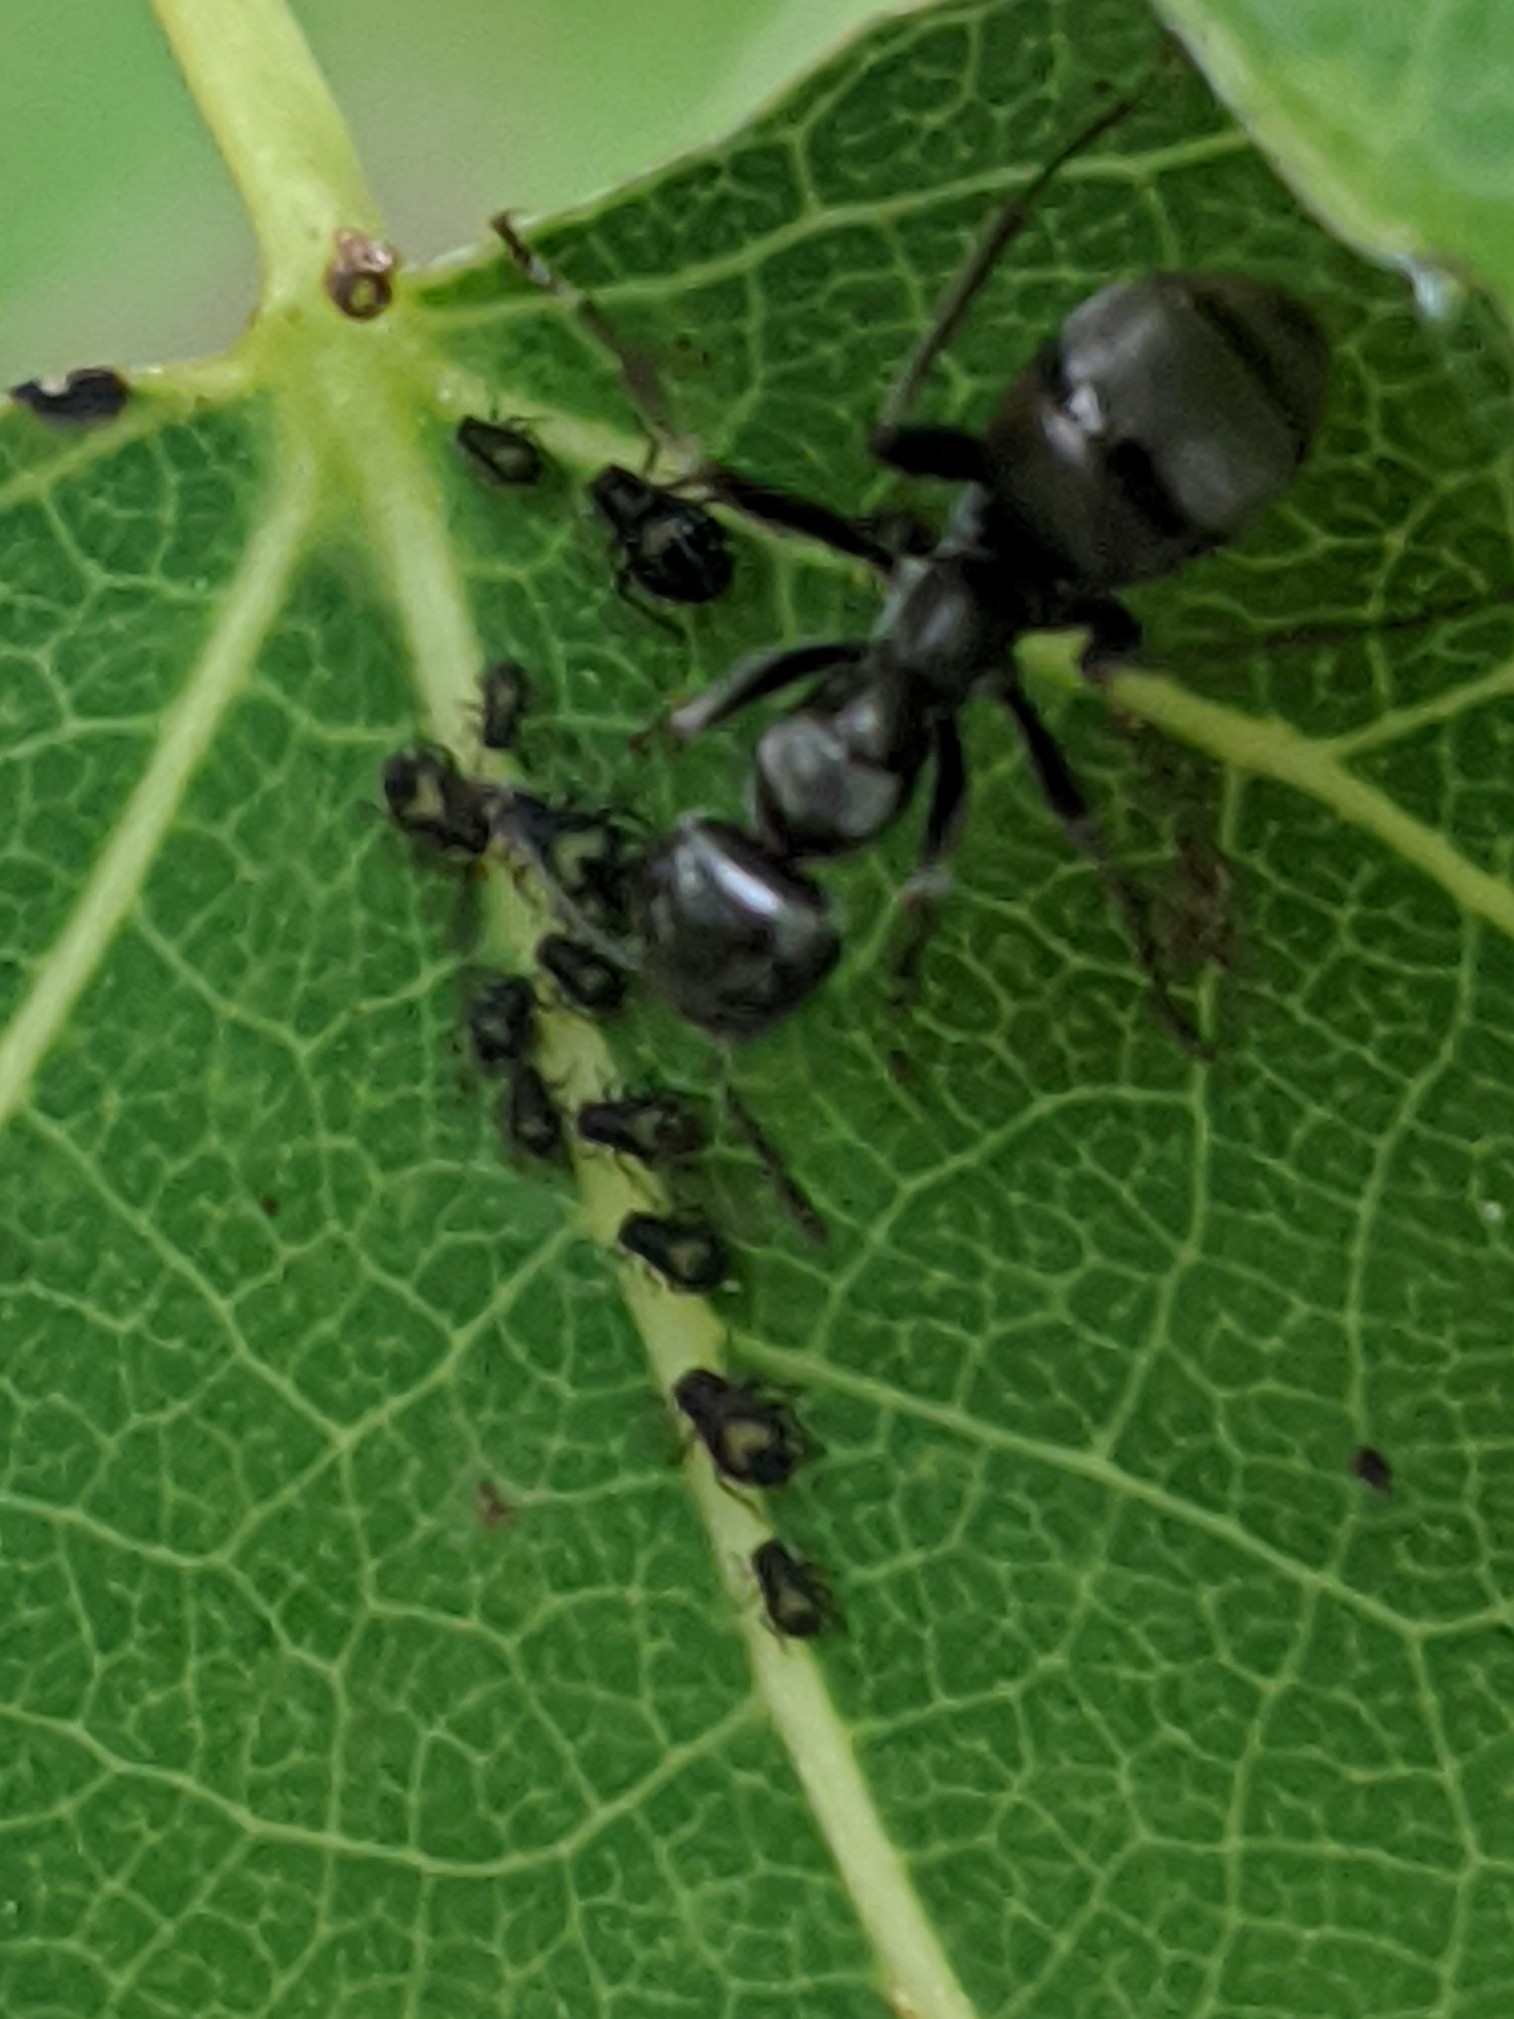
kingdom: Animalia
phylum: Arthropoda
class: Insecta
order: Hymenoptera
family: Formicidae
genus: Formica
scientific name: Formica
